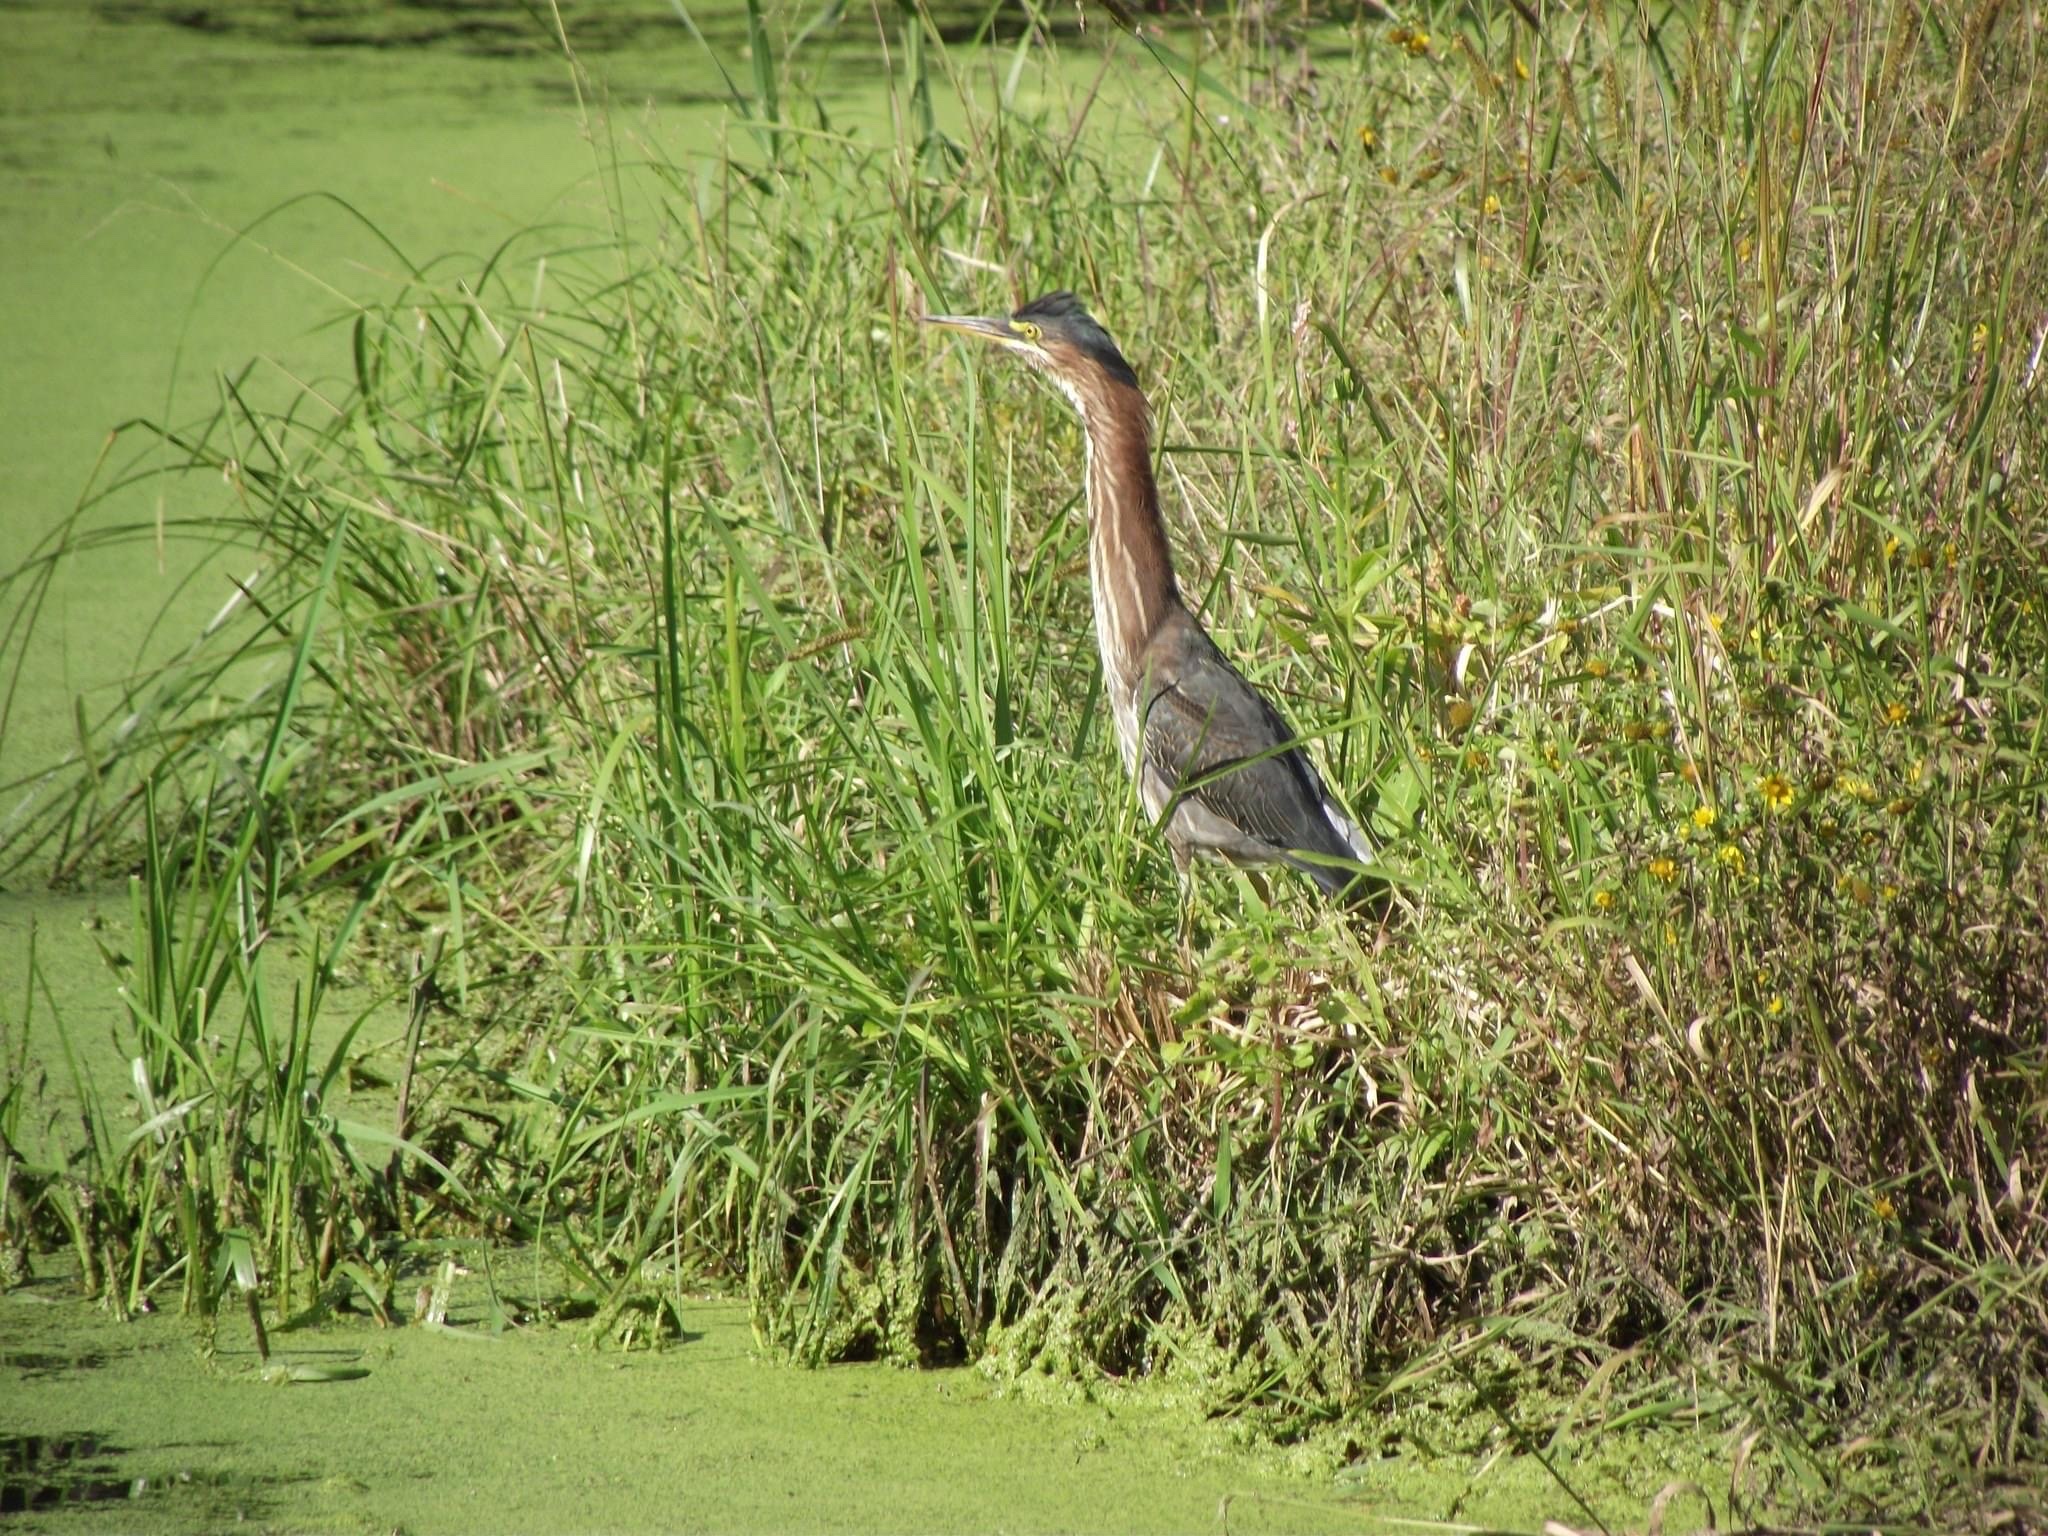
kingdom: Animalia
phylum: Chordata
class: Aves
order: Pelecaniformes
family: Ardeidae
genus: Butorides
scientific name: Butorides virescens
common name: Green heron
